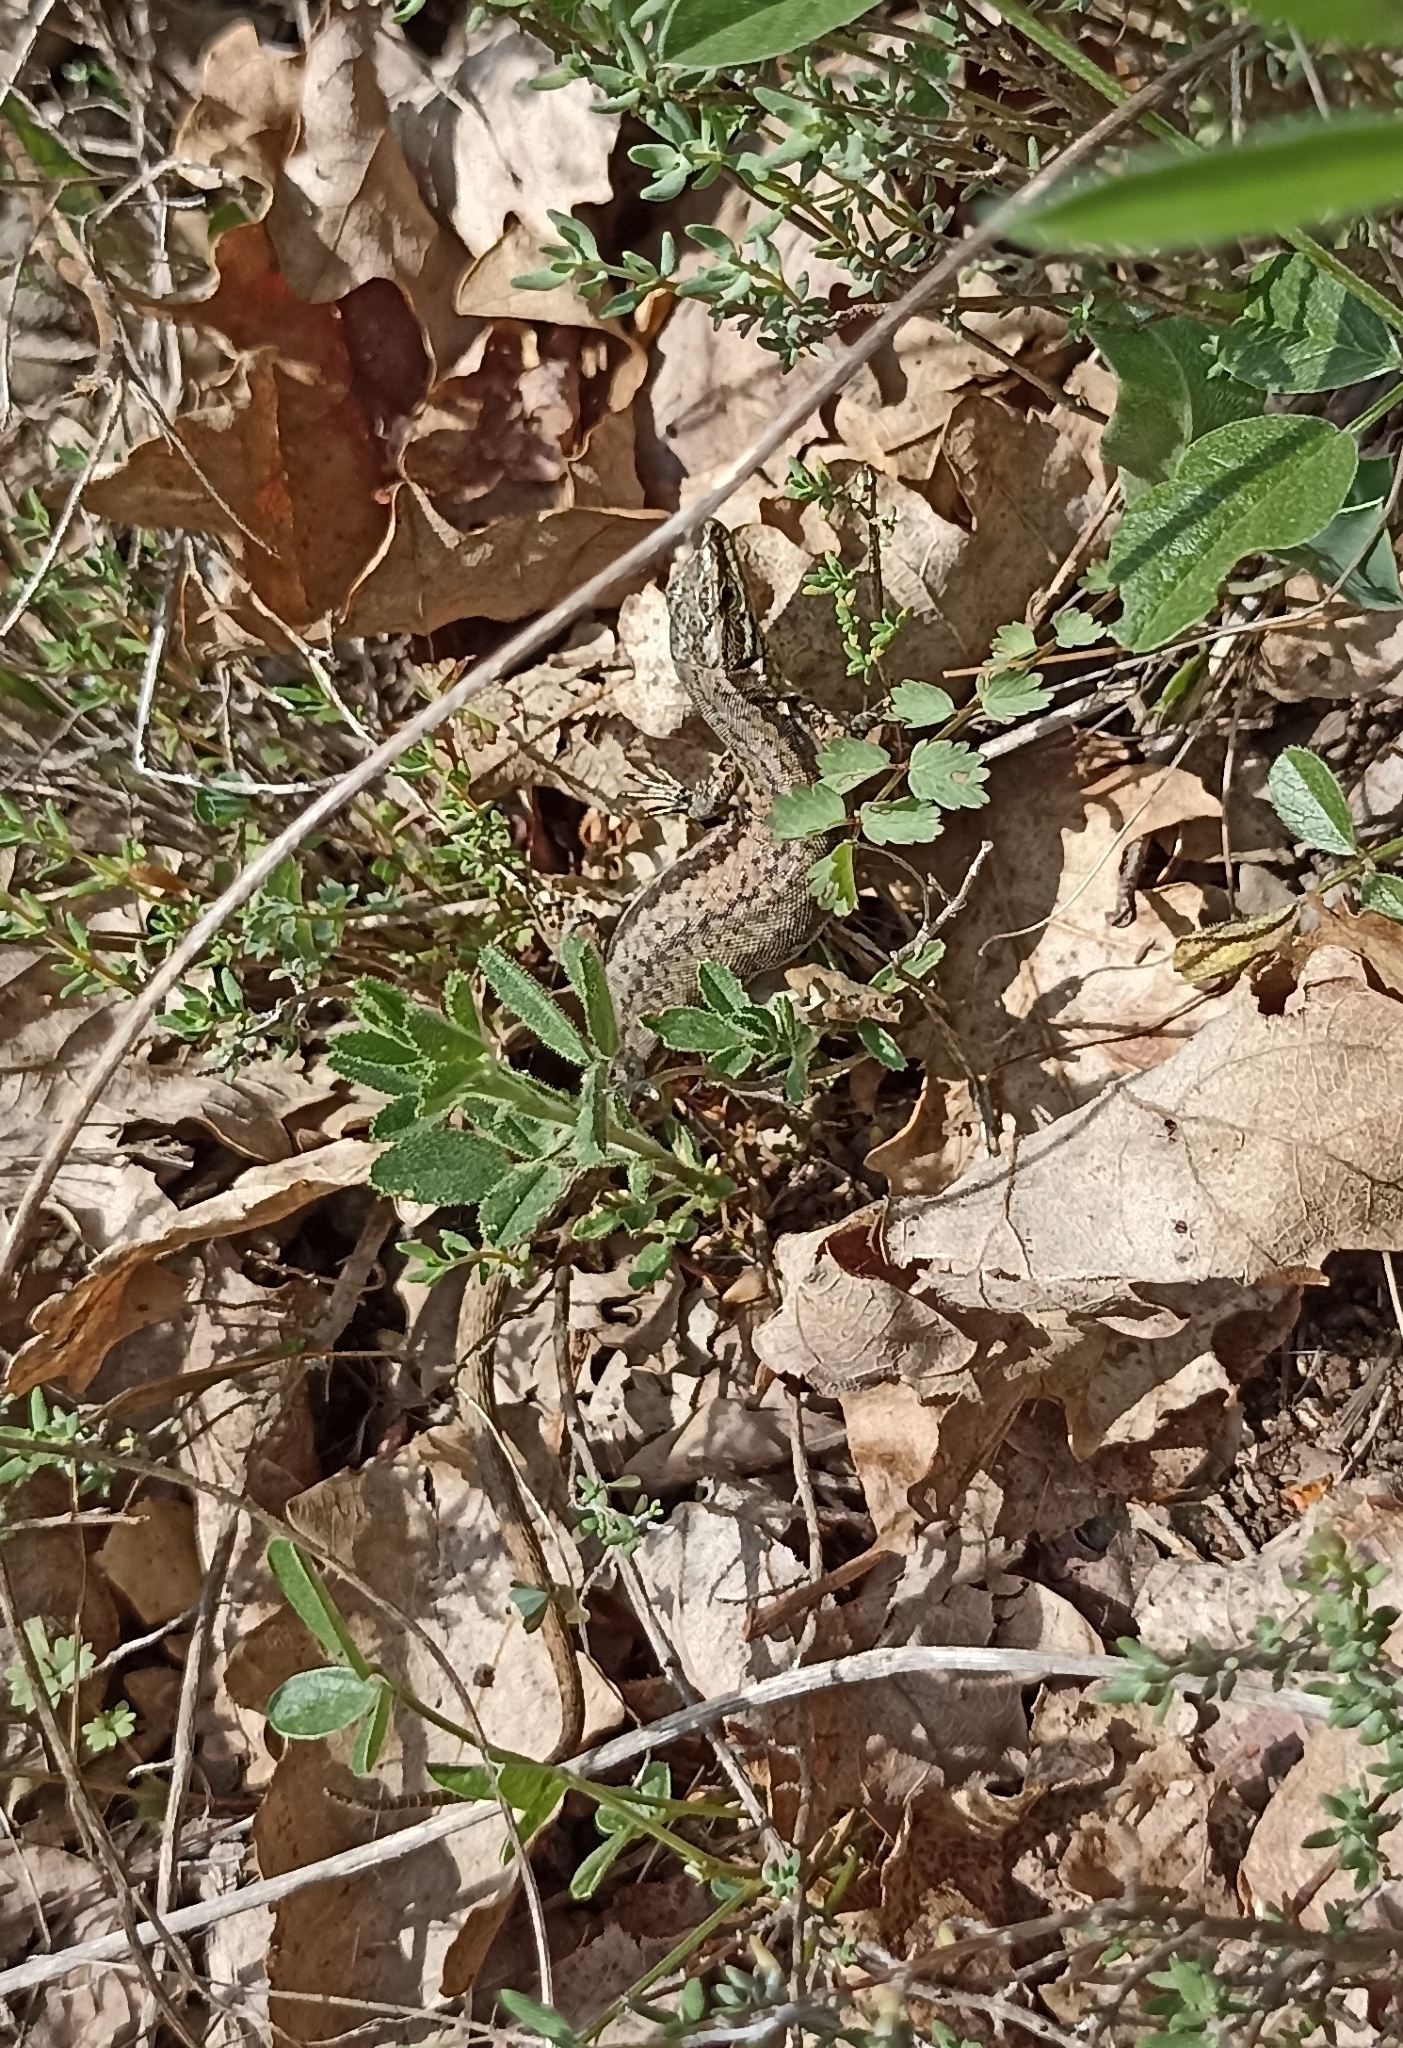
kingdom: Animalia
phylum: Chordata
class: Squamata
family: Lacertidae
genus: Podarcis
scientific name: Podarcis muralis
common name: Common wall lizard
